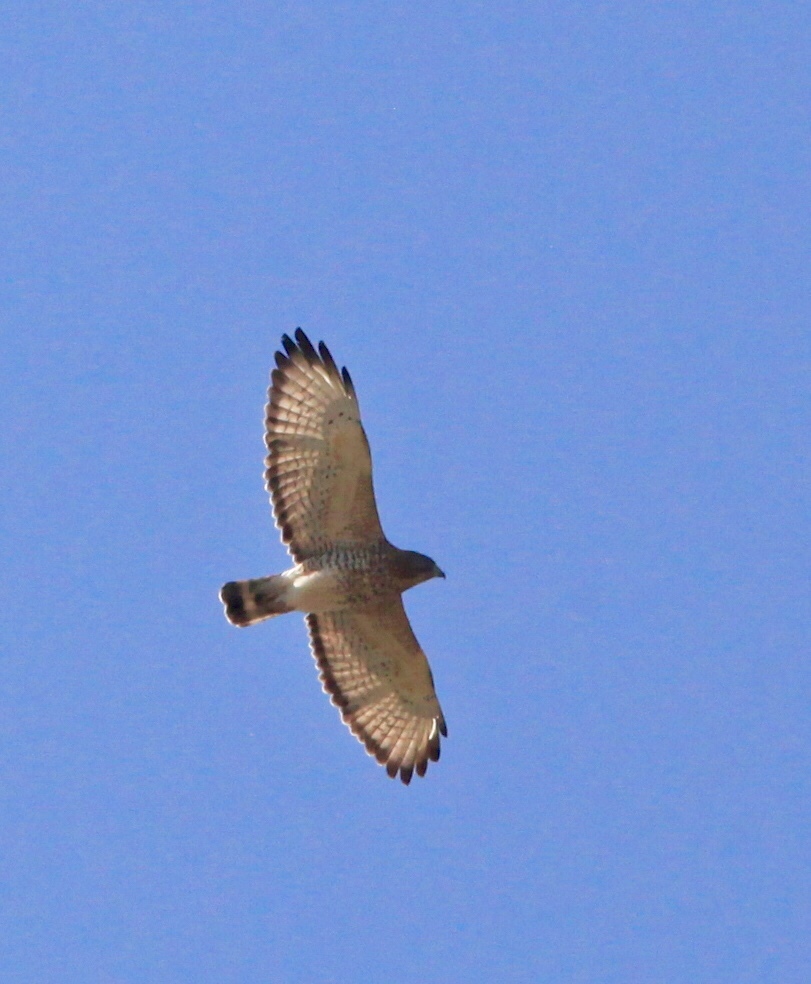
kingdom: Animalia
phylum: Chordata
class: Aves
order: Accipitriformes
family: Accipitridae
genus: Buteo
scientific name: Buteo platypterus
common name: Broad-winged hawk
